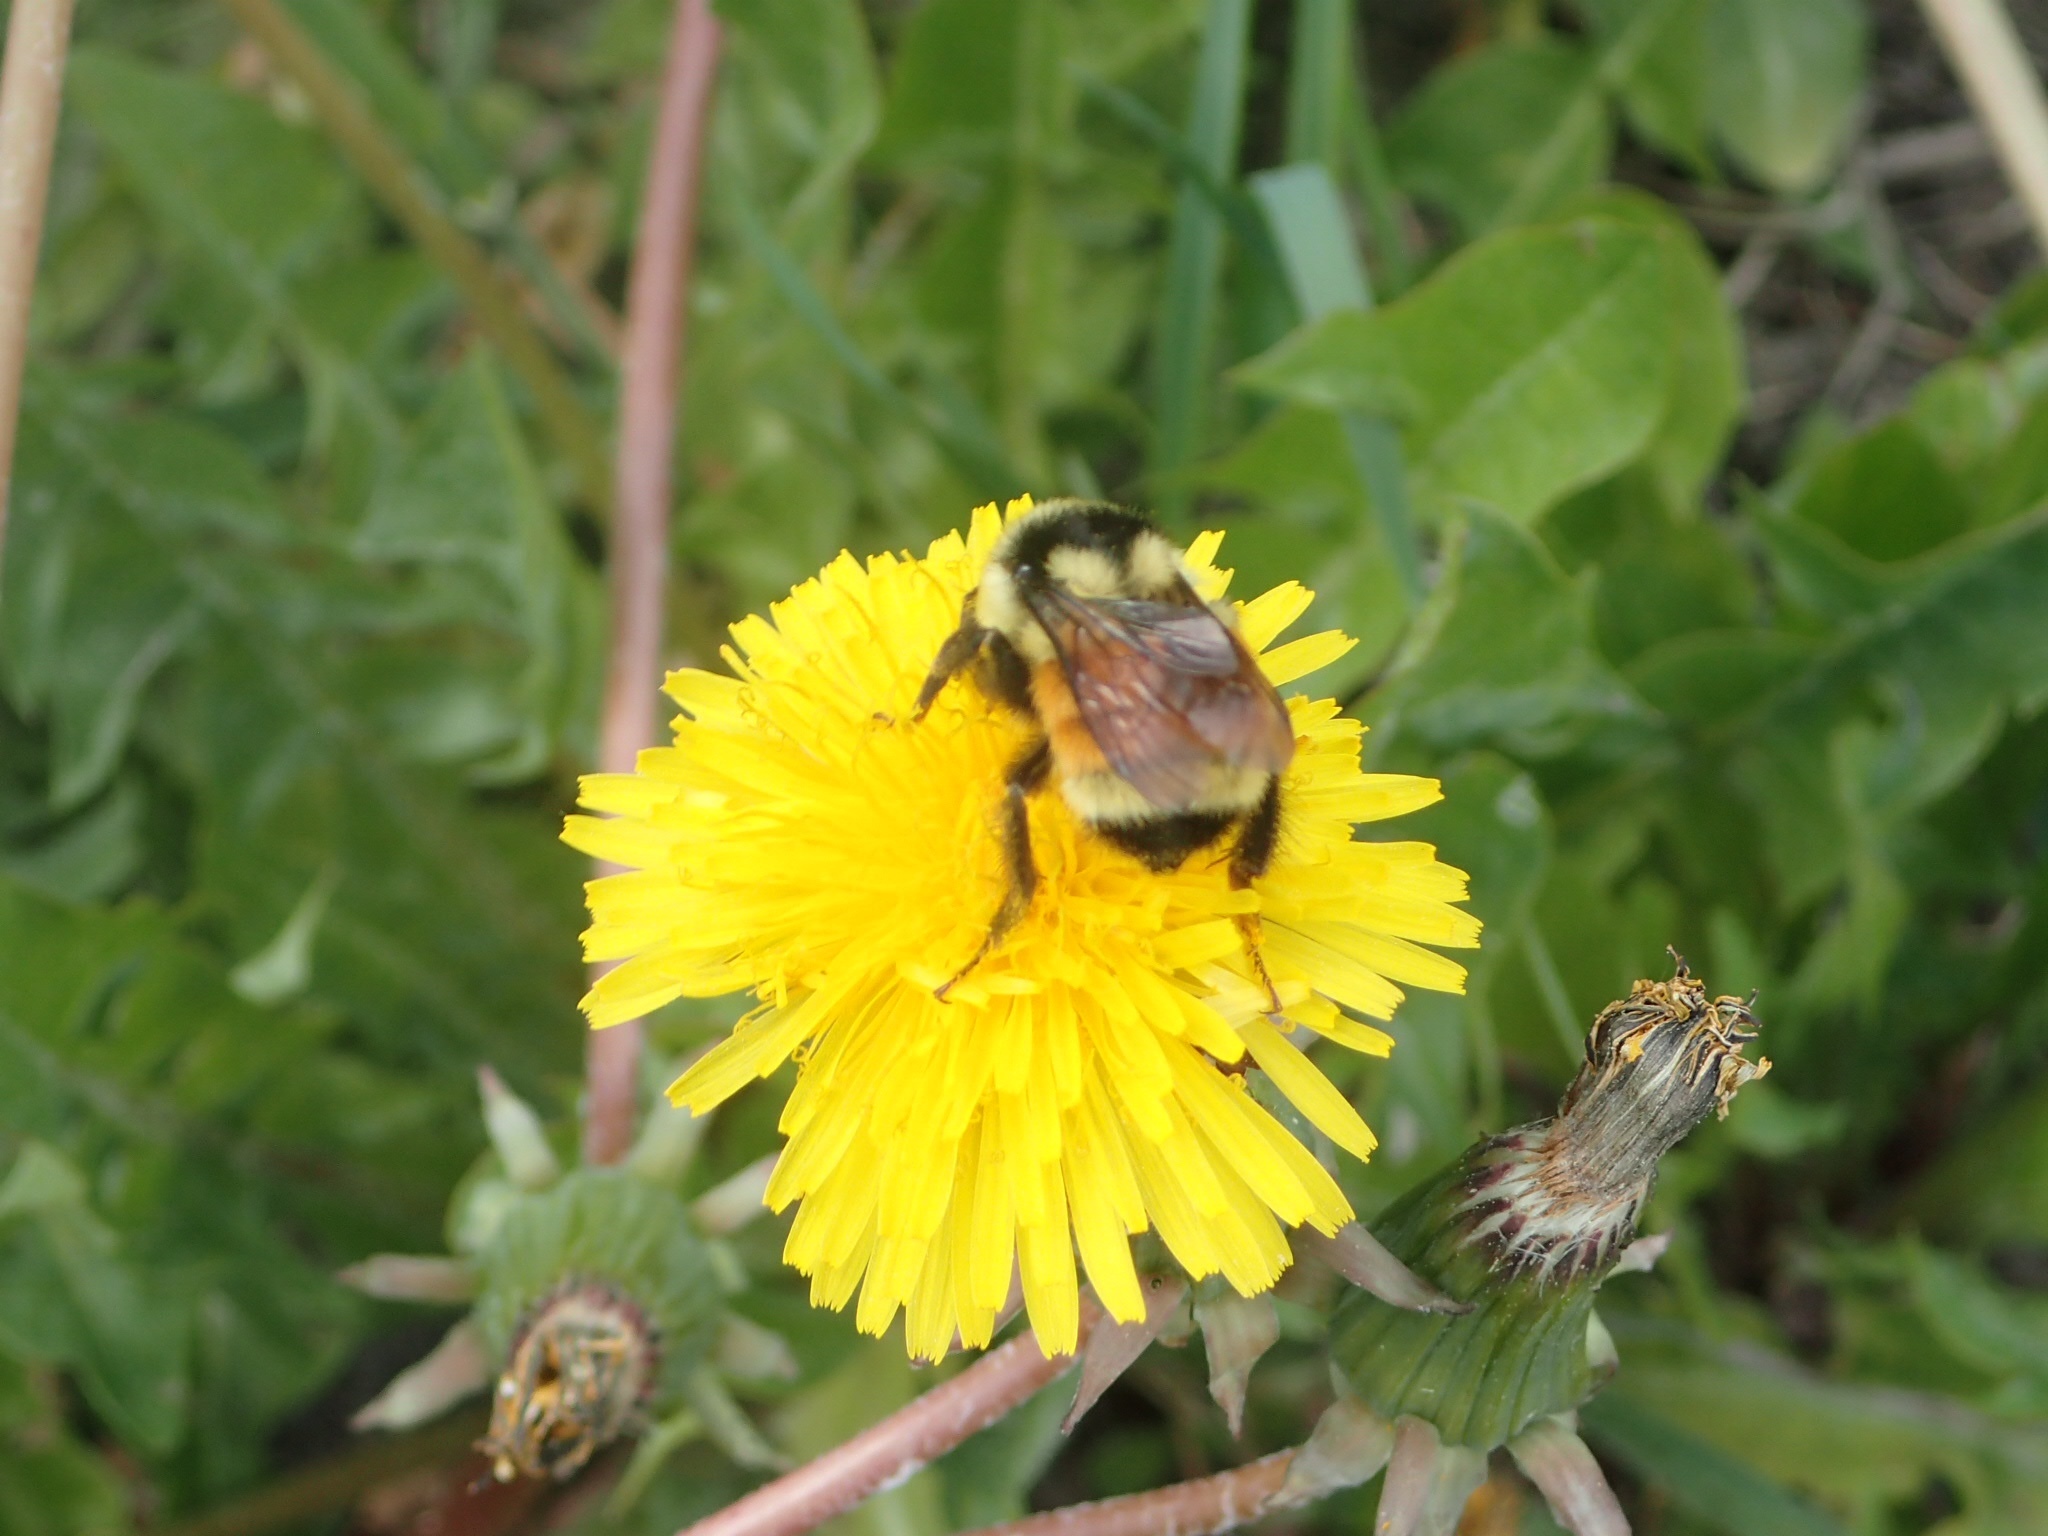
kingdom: Animalia
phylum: Arthropoda
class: Insecta
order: Hymenoptera
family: Apidae
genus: Bombus
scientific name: Bombus ternarius
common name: Tri-colored bumble bee
